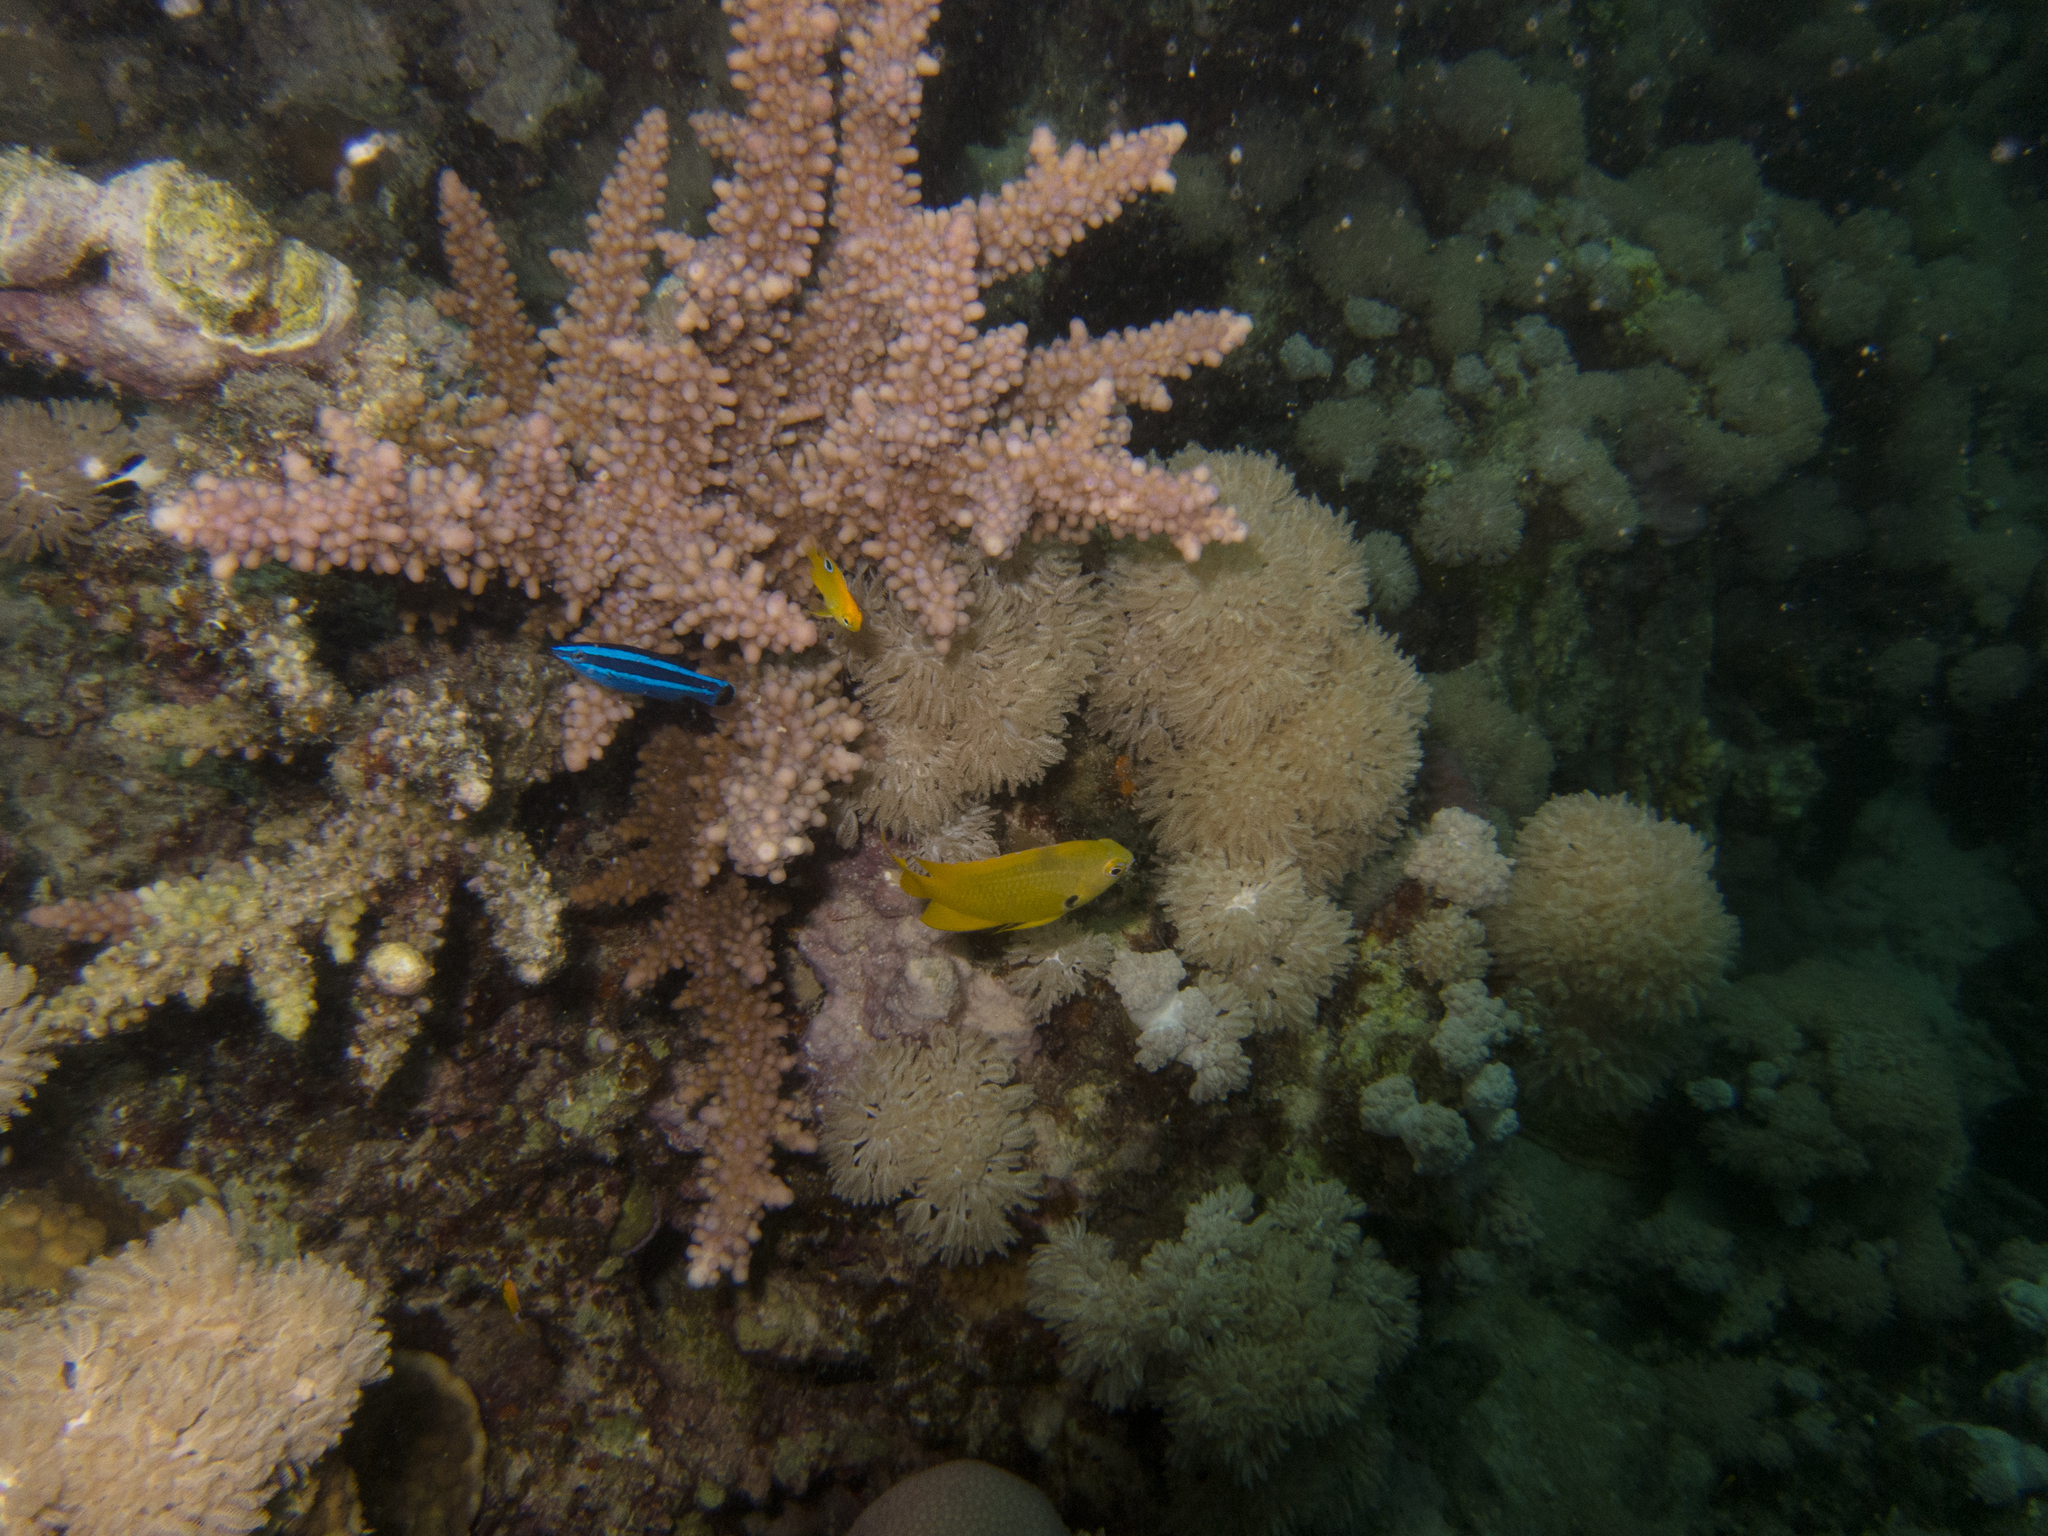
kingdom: Animalia
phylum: Chordata
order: Perciformes
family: Pomacentridae
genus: Pomacentrus
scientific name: Pomacentrus sulfureus
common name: Sulfur damsel
